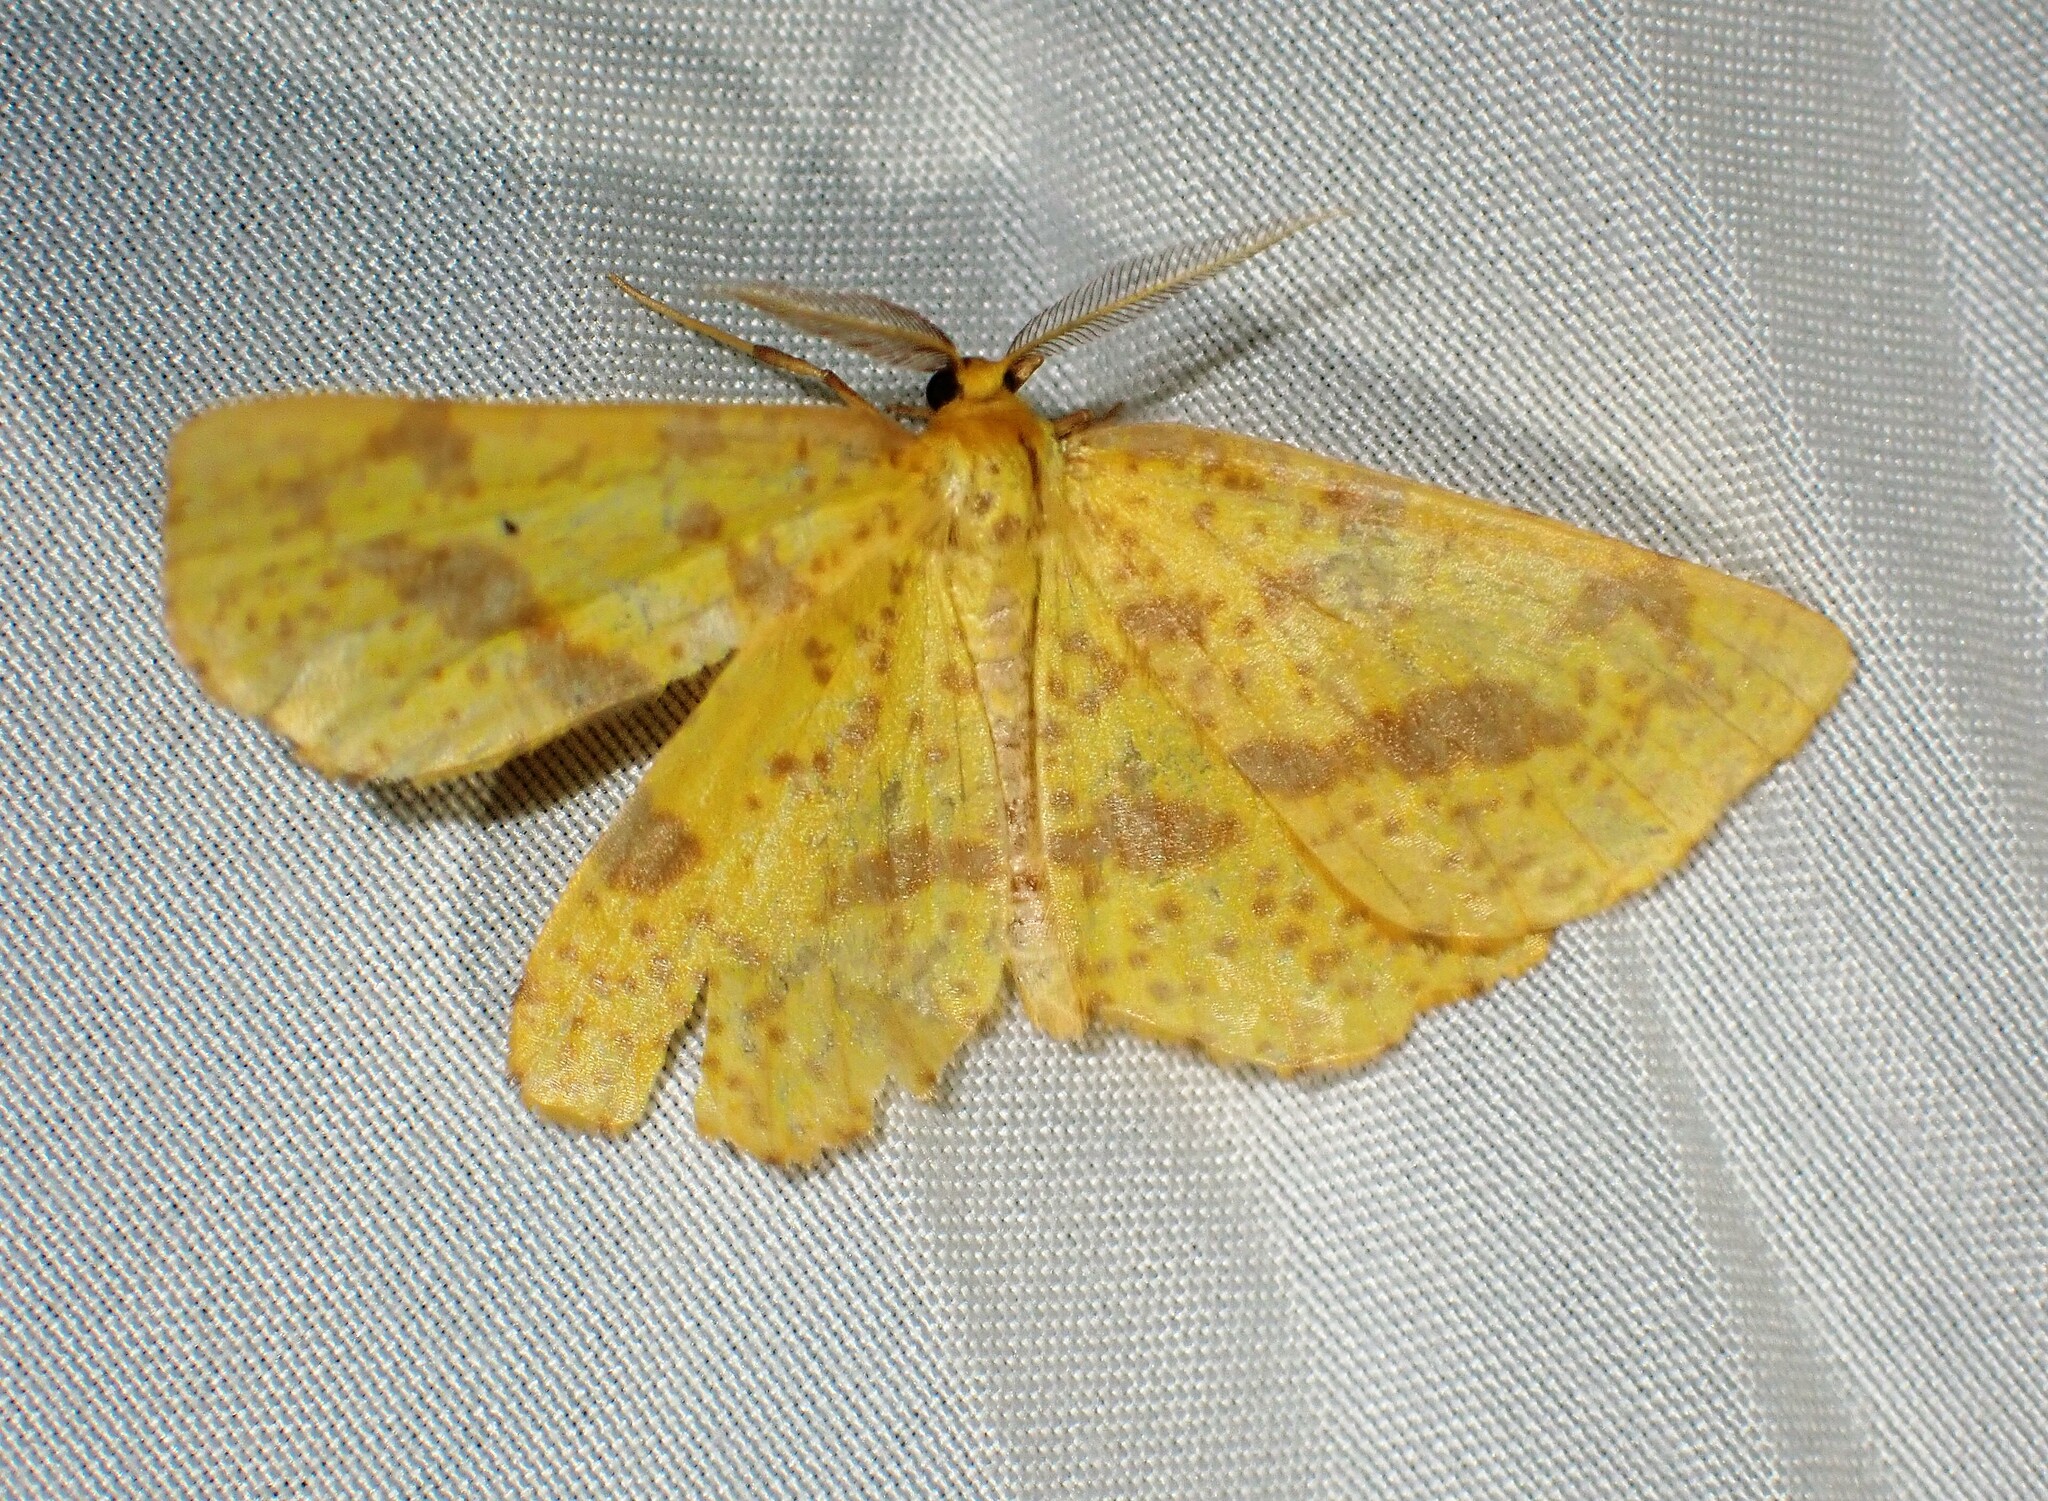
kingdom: Animalia
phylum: Arthropoda
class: Insecta
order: Lepidoptera
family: Geometridae
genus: Xanthotype
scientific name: Xanthotype
